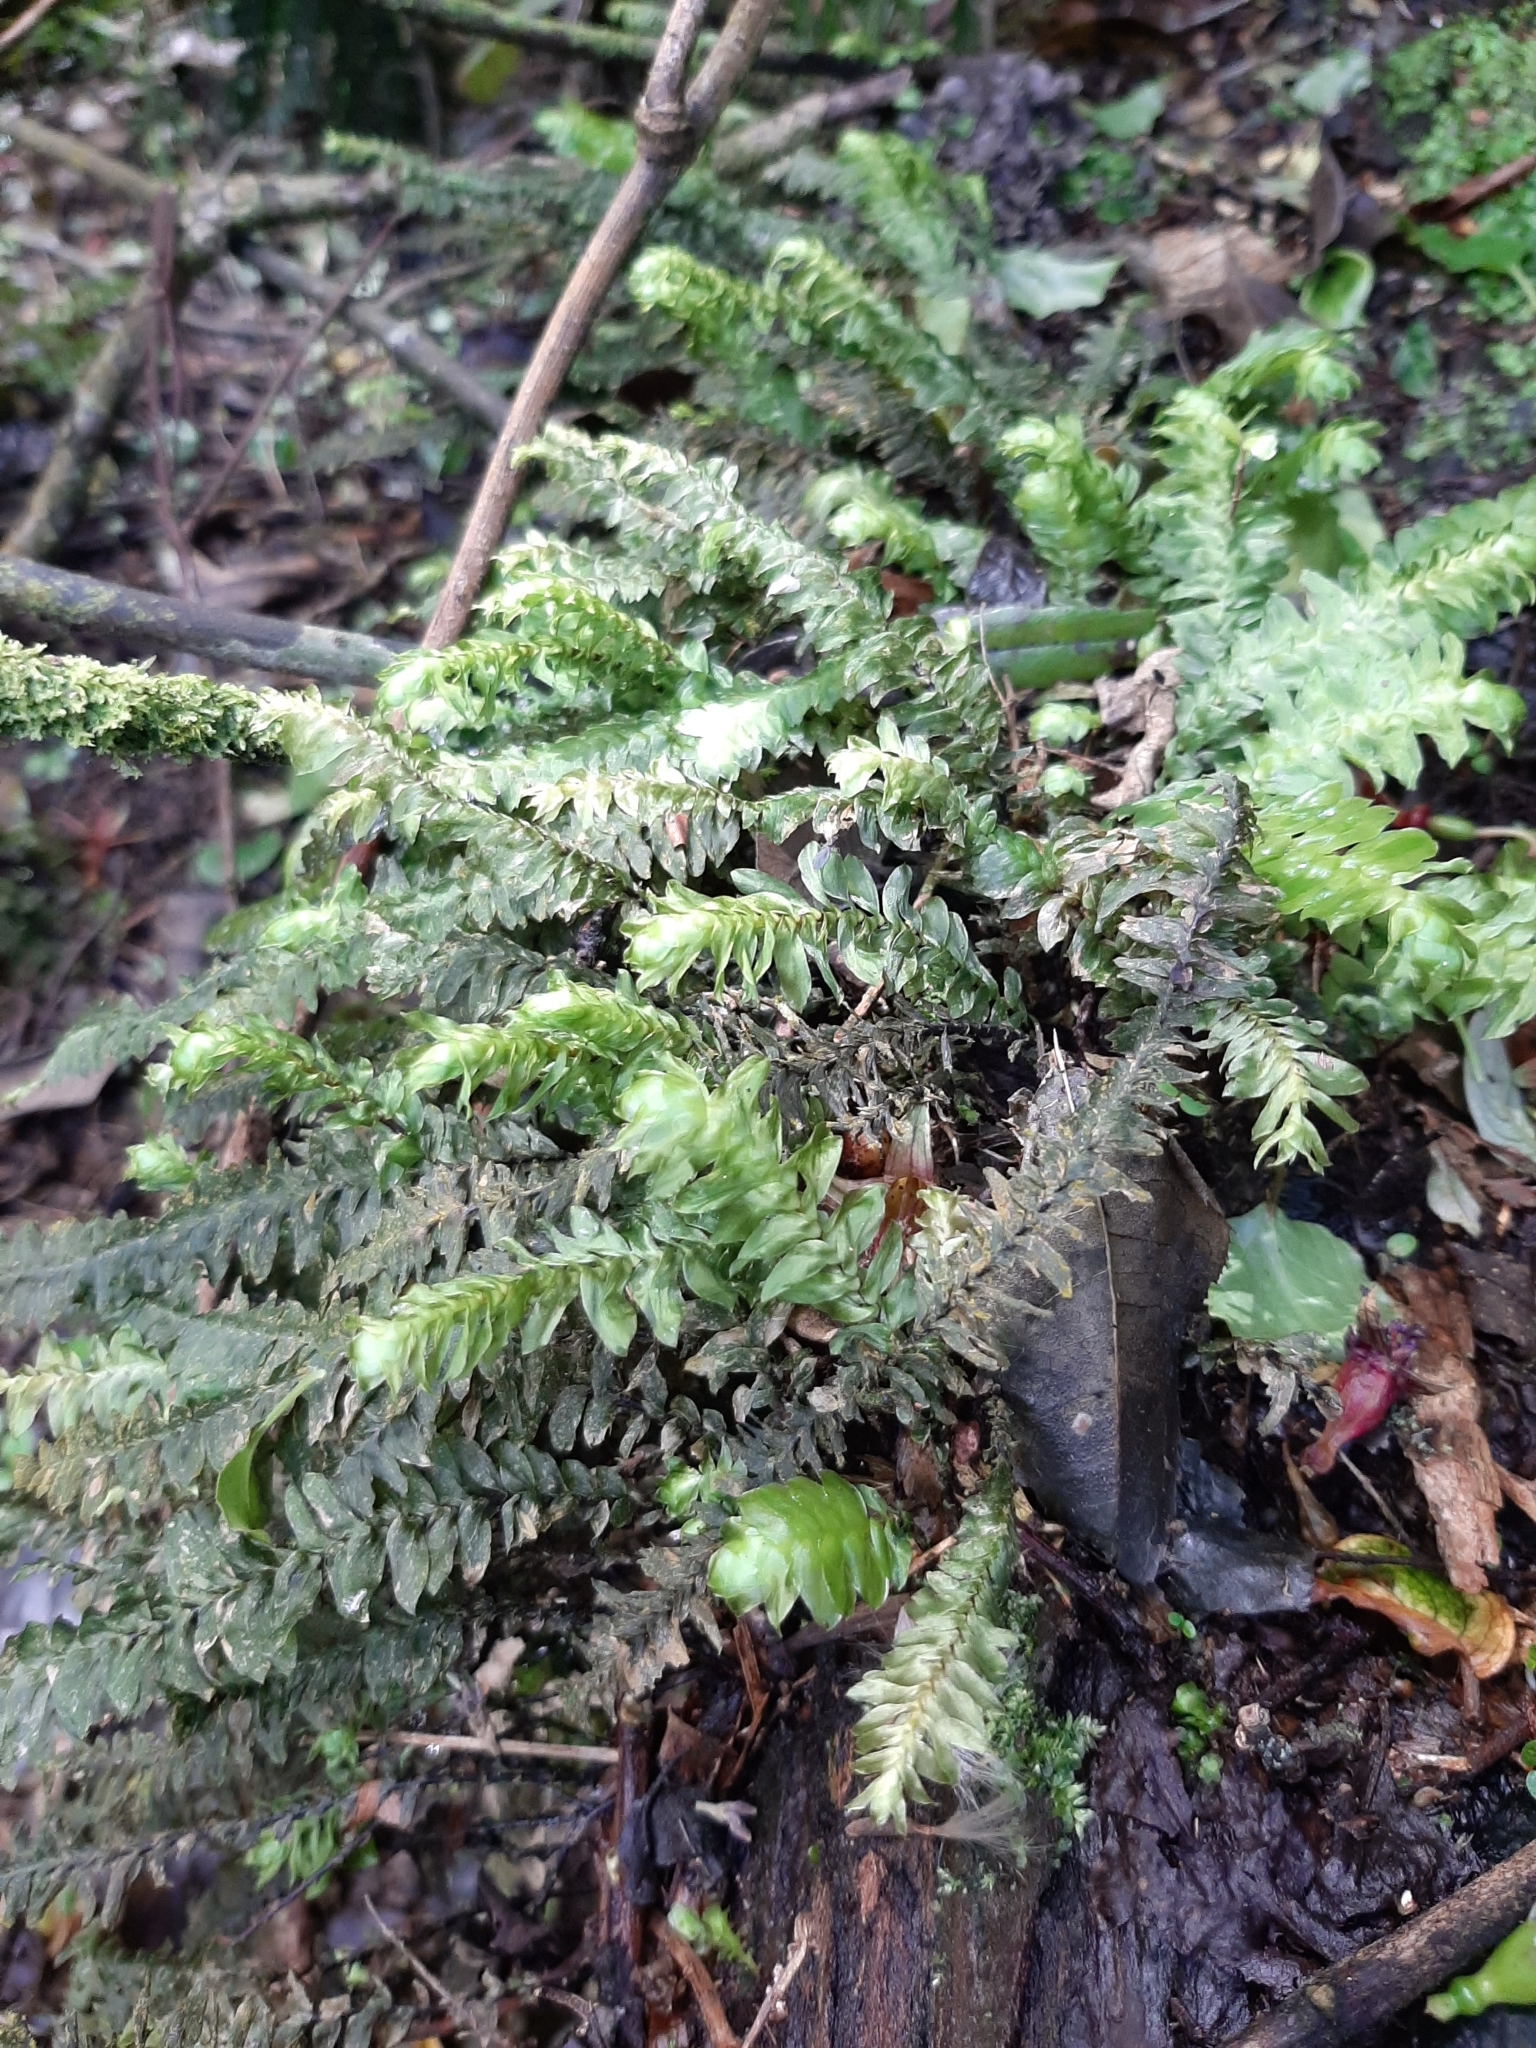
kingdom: Plantae
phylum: Bryophyta
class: Bryopsida
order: Hypopterygiales
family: Hypopterygiaceae
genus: Cyathophorum
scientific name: Cyathophorum bulbosum
